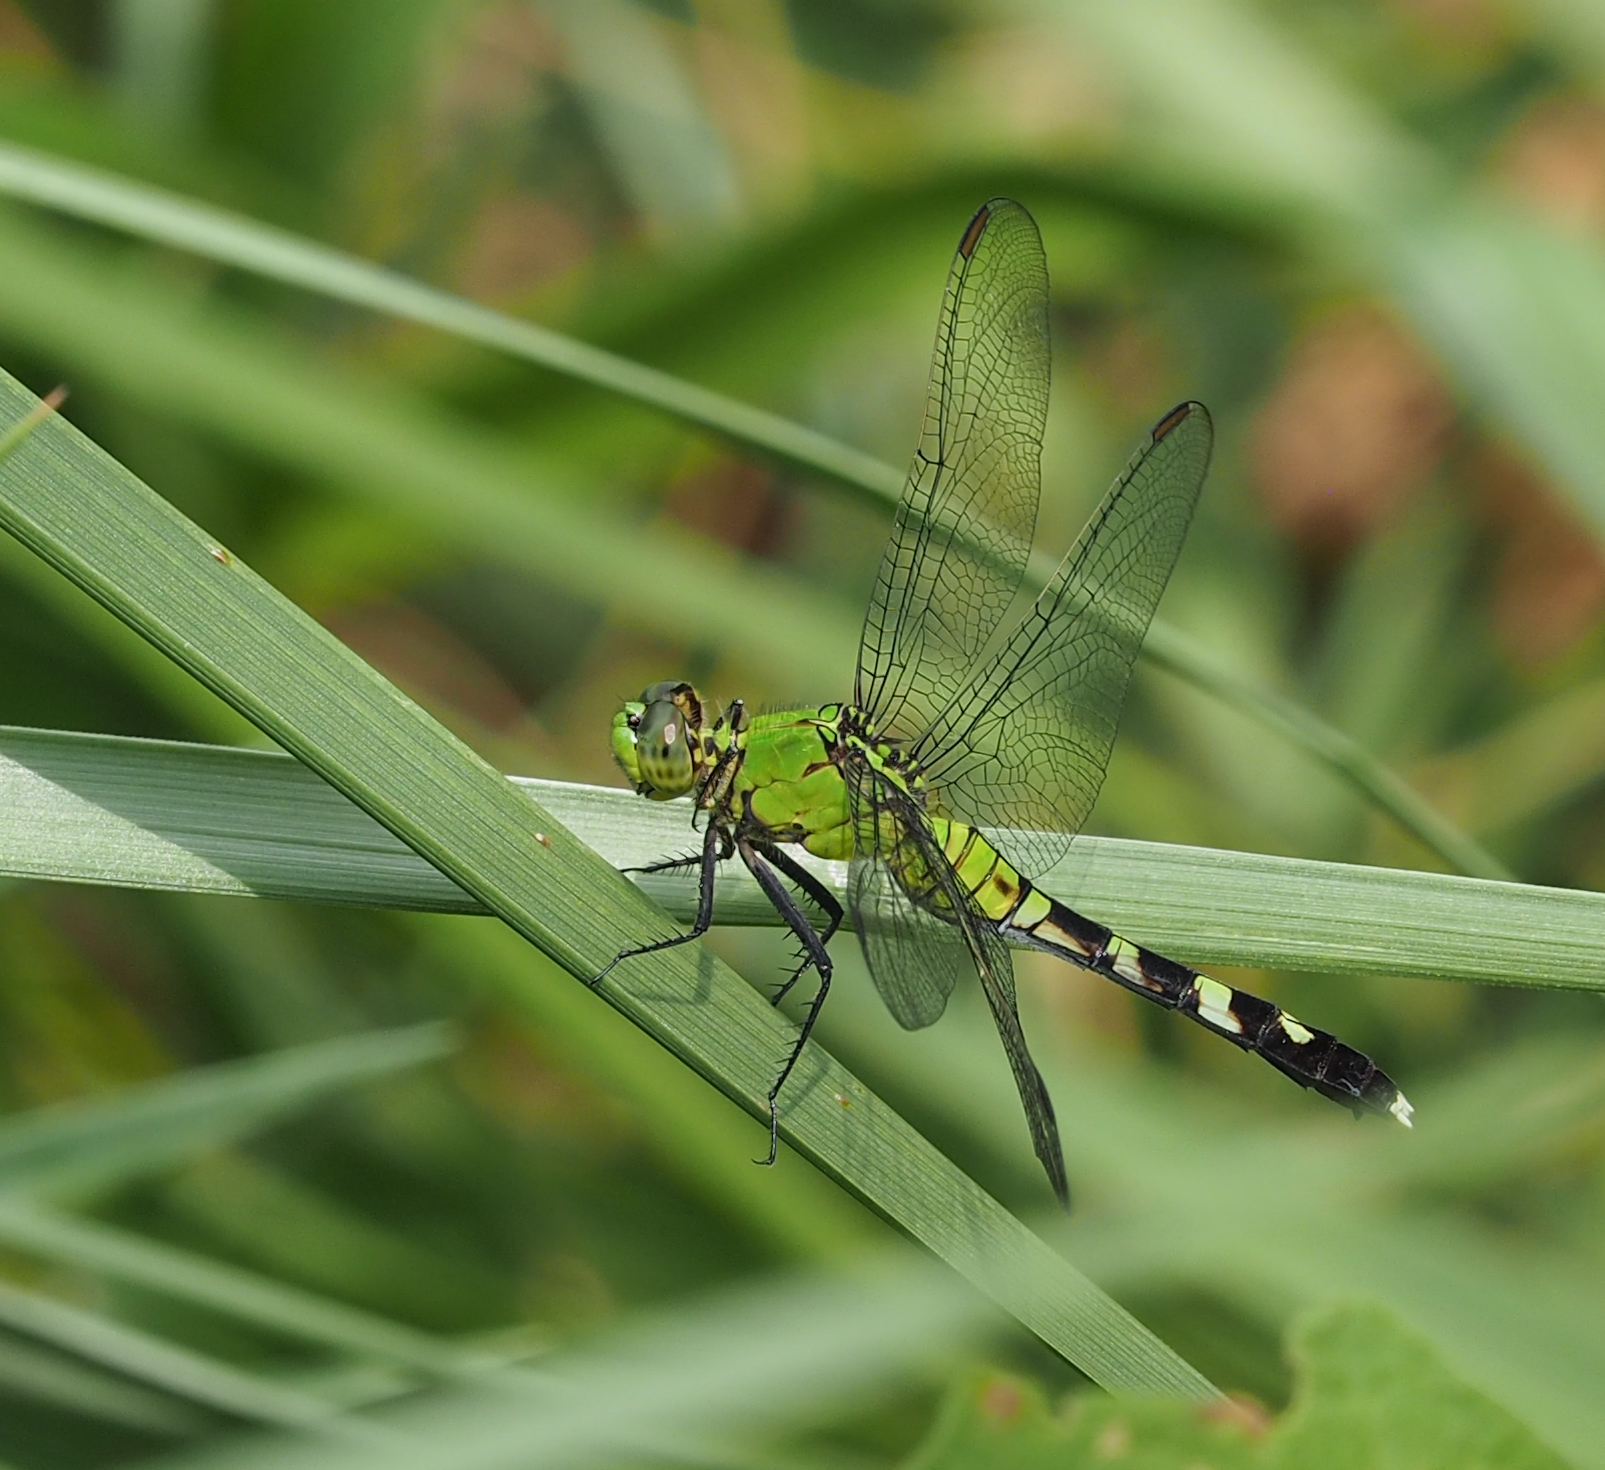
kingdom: Animalia
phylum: Arthropoda
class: Insecta
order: Odonata
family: Libellulidae
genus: Erythemis
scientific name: Erythemis simplicicollis
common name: Eastern pondhawk
